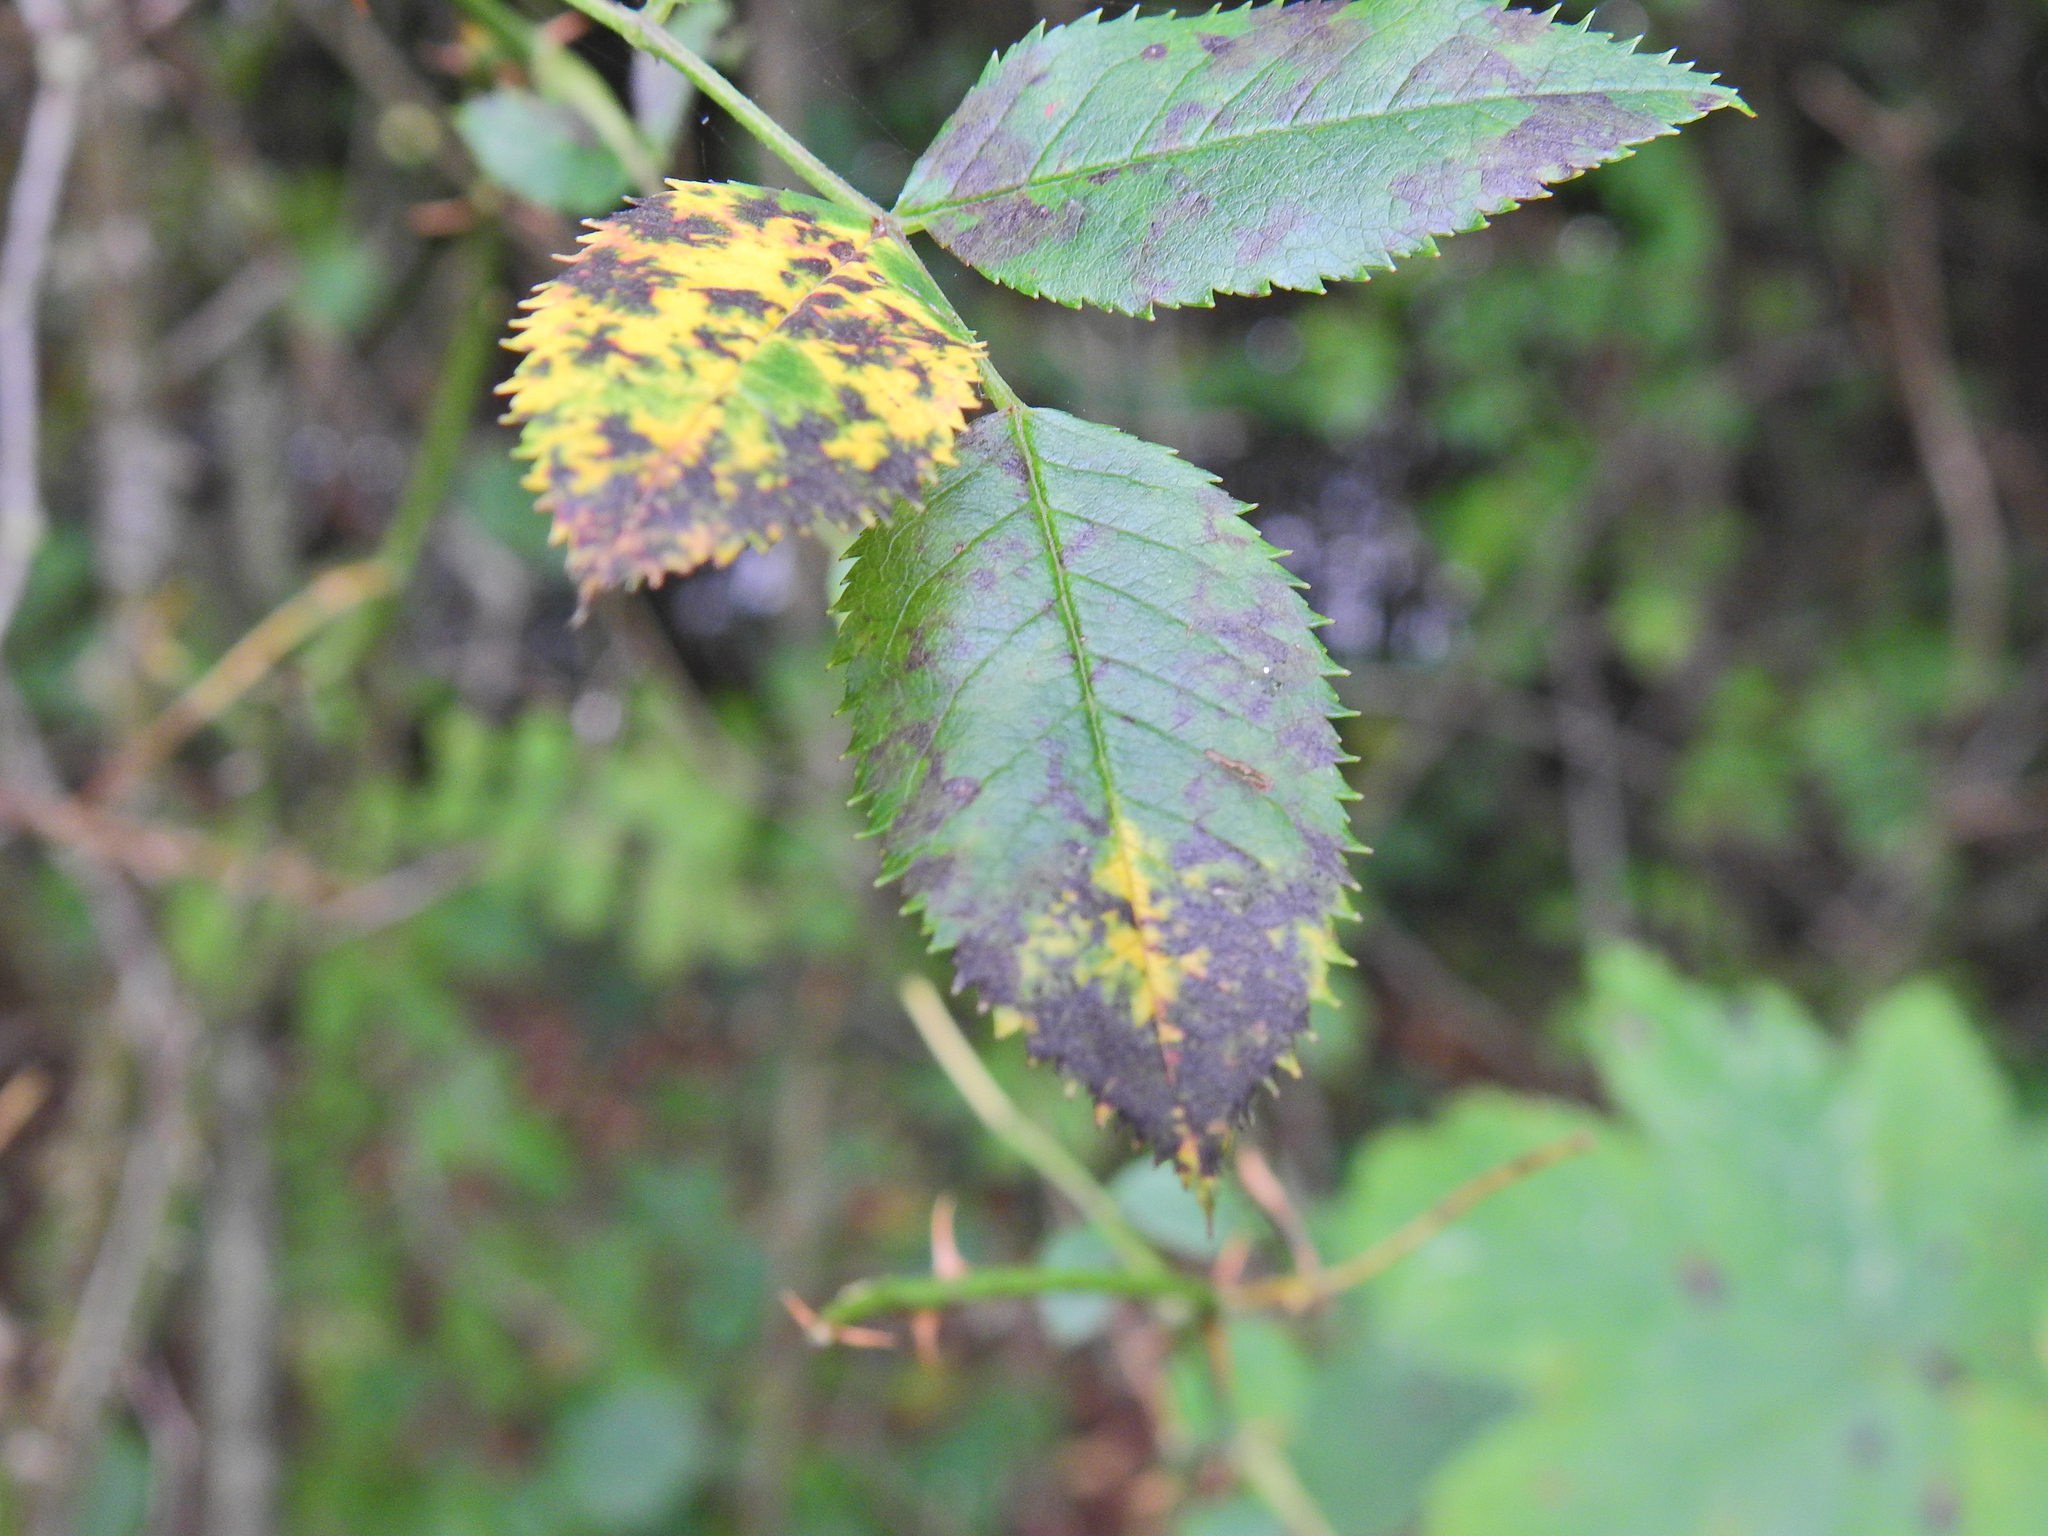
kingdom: Fungi
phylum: Ascomycota
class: Leotiomycetes
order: Helotiales
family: Drepanopezizaceae
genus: Diplocarpon
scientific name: Diplocarpon rosae
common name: Rose black-spot
